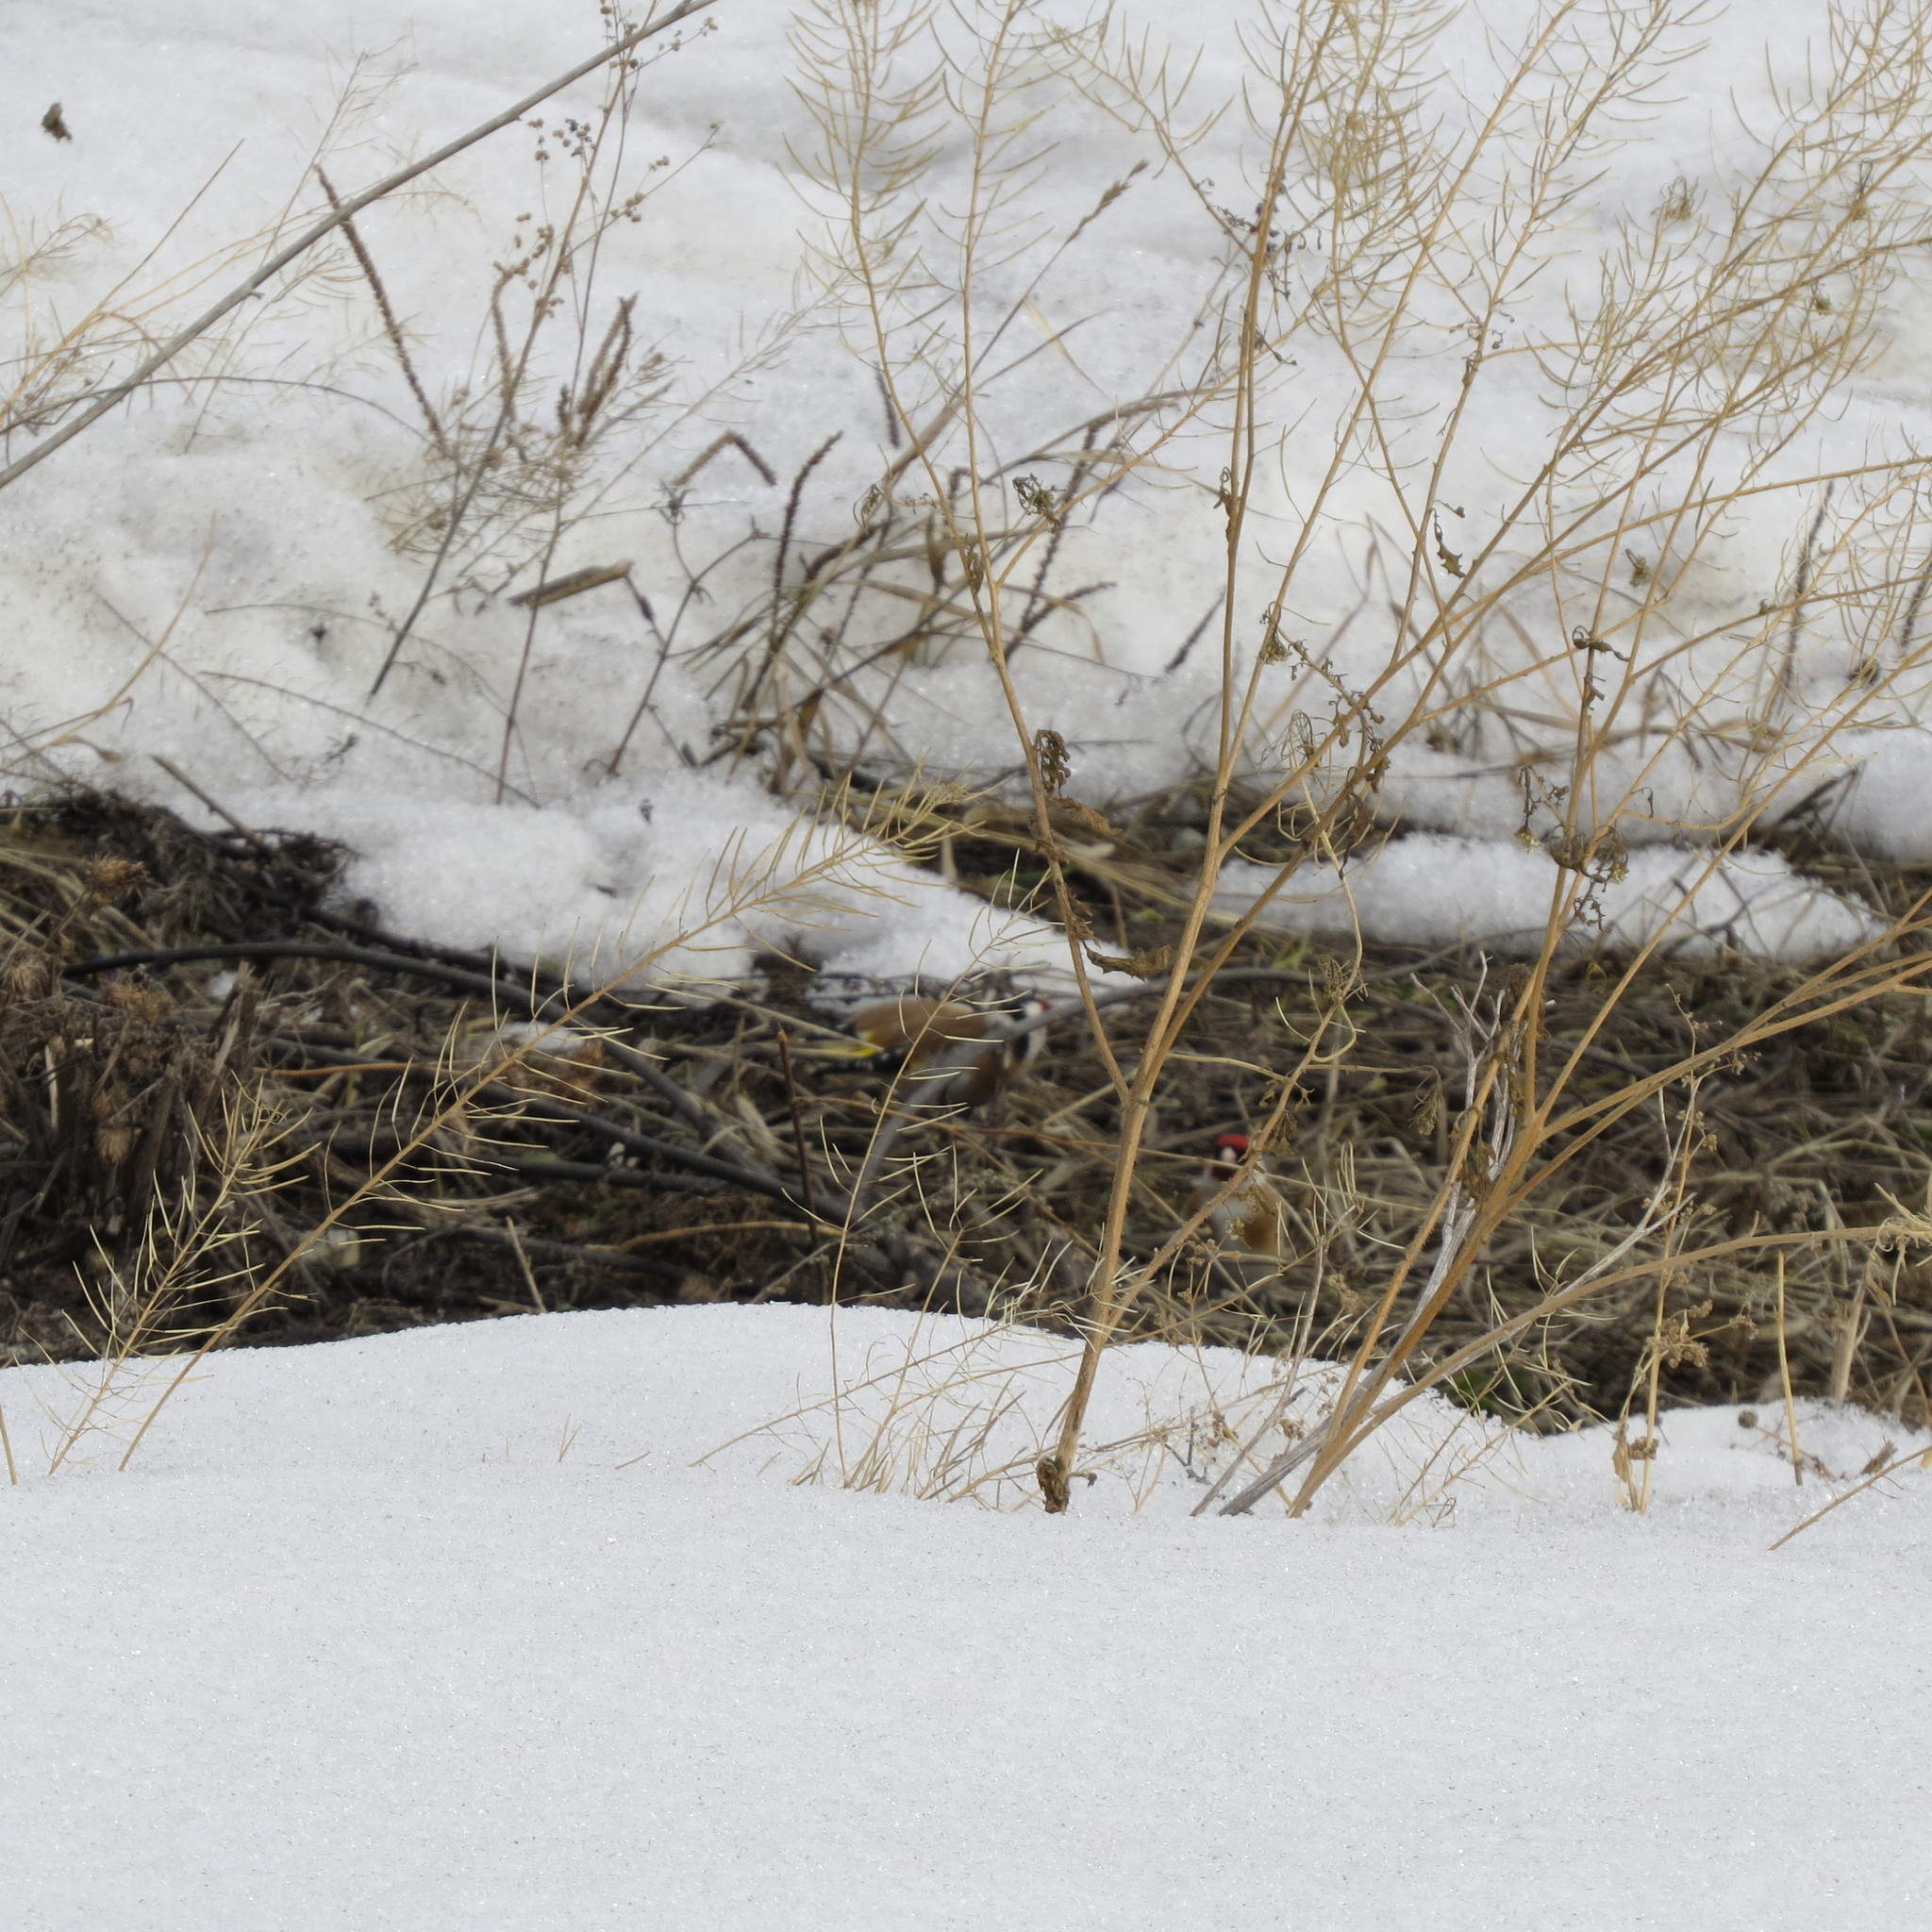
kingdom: Animalia
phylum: Chordata
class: Aves
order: Passeriformes
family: Fringillidae
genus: Carduelis
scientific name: Carduelis carduelis
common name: European goldfinch
